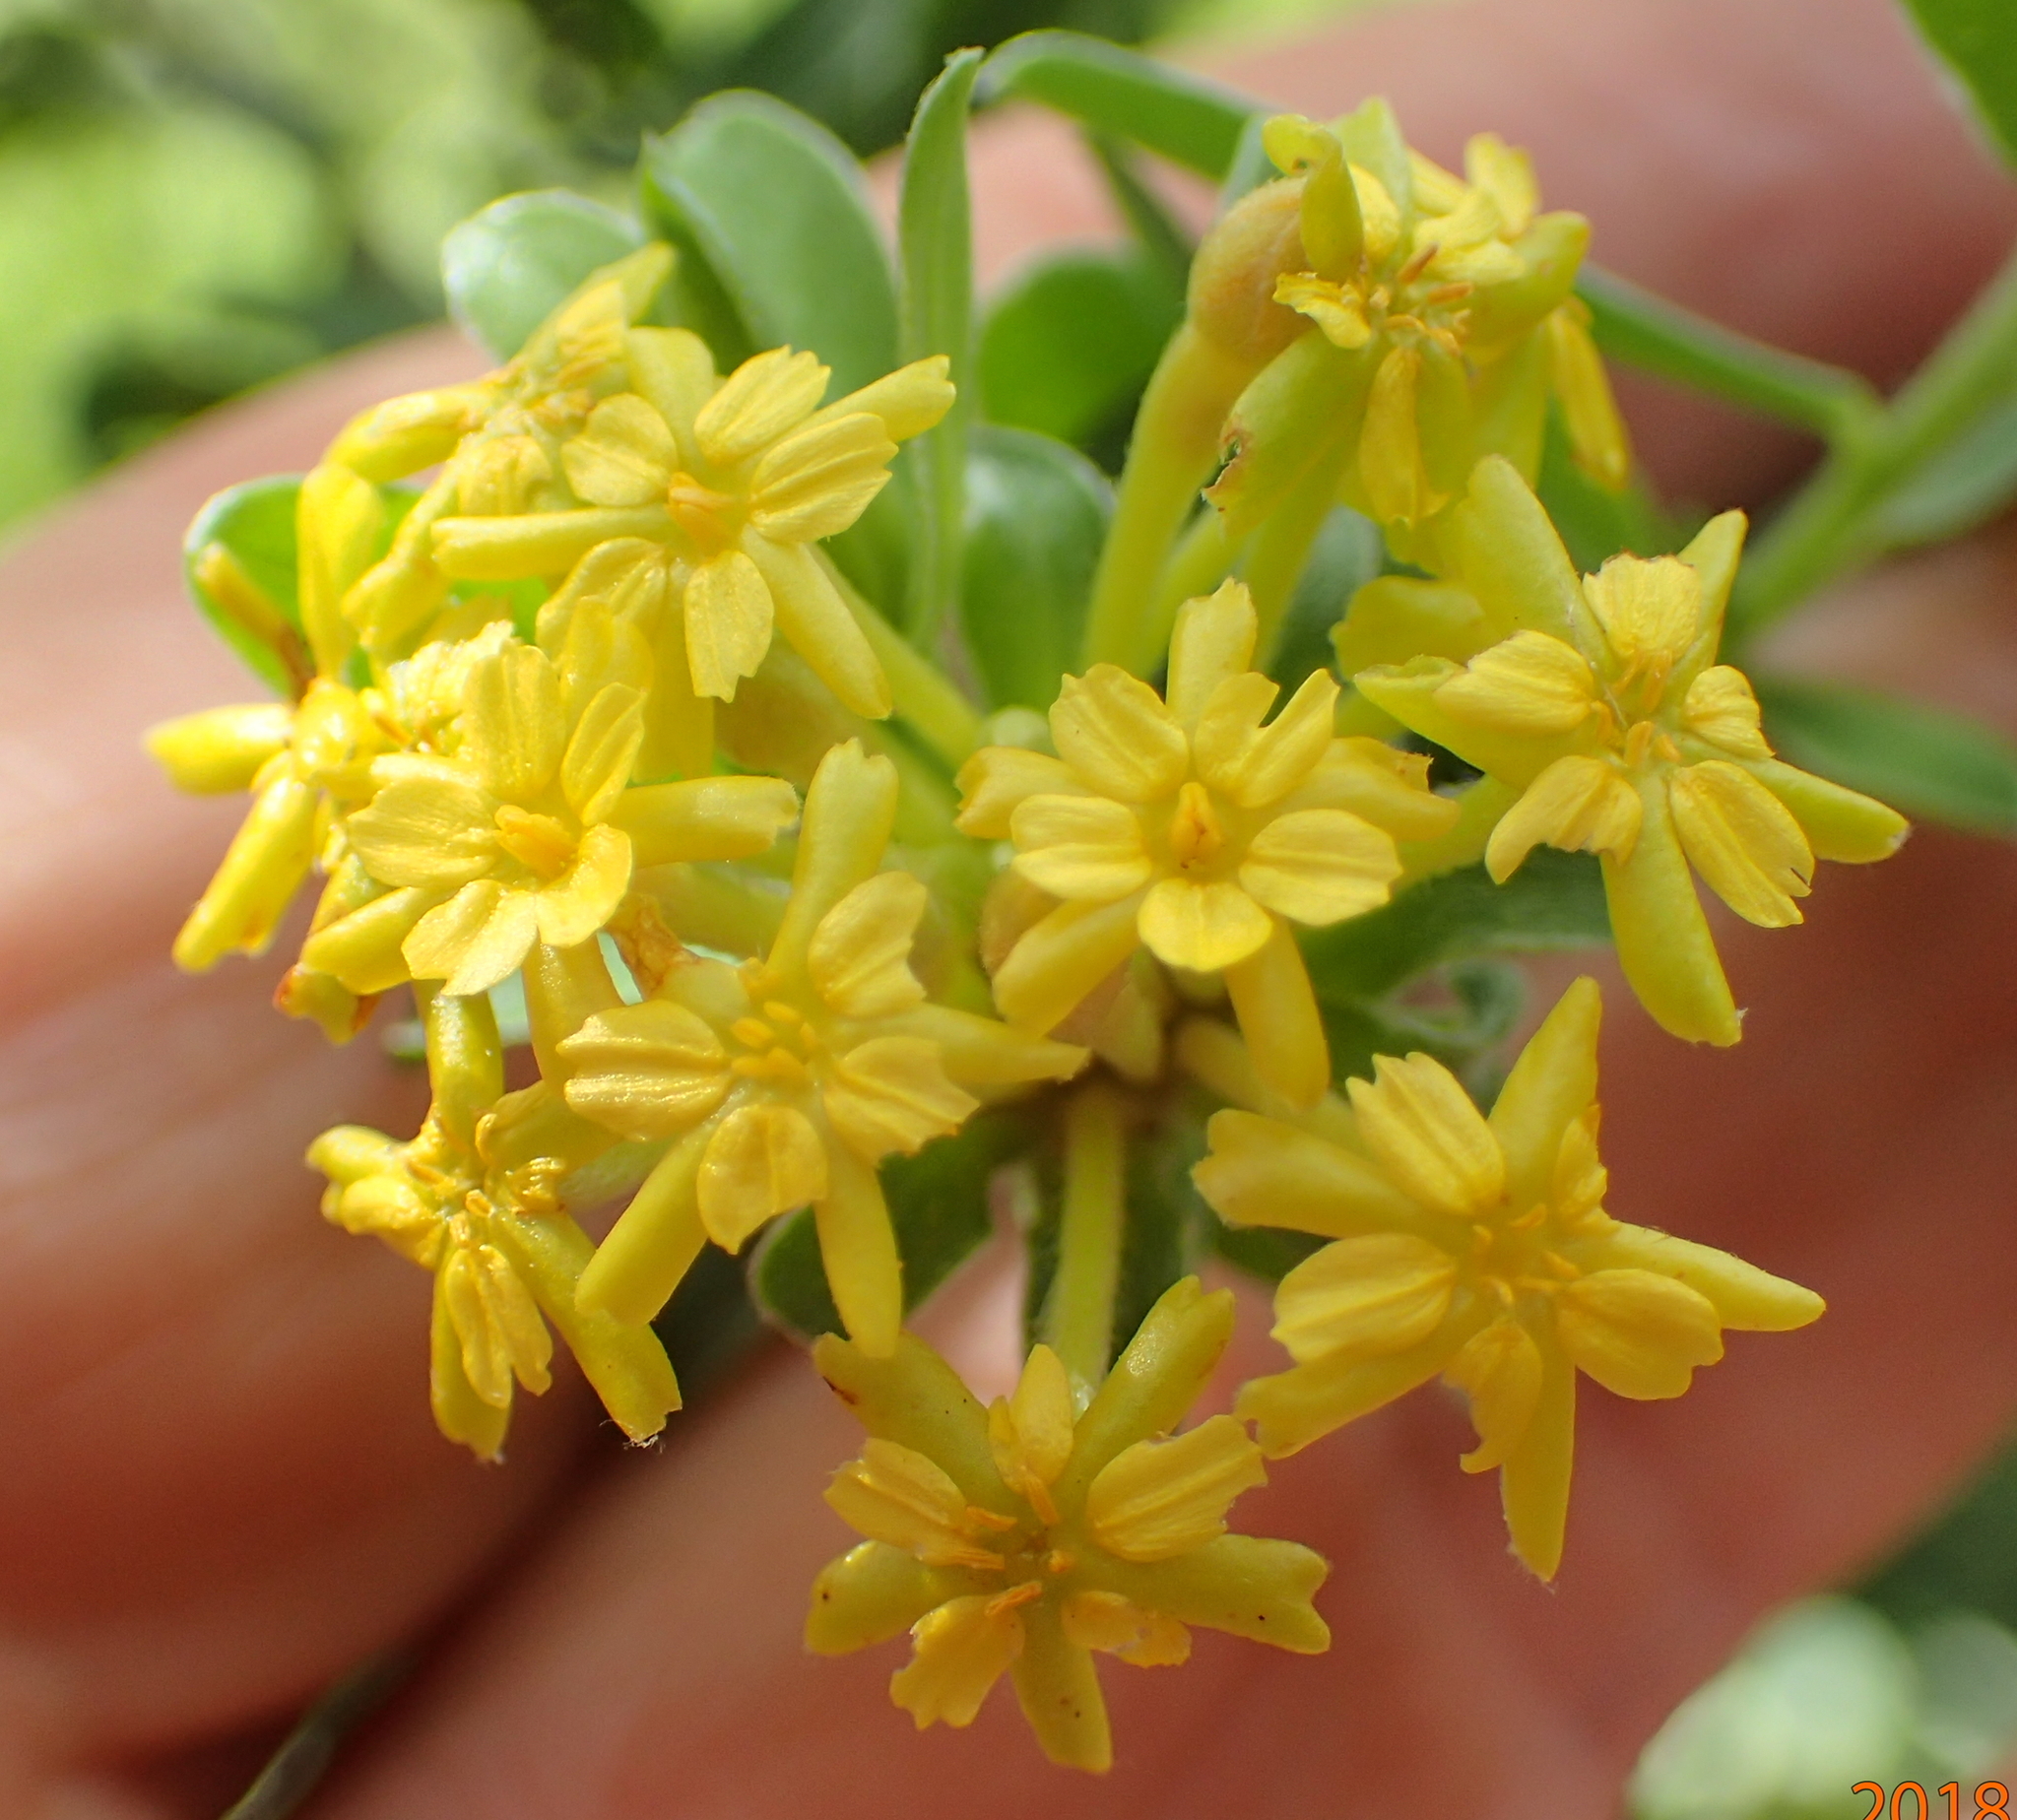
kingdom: Plantae
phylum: Tracheophyta
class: Magnoliopsida
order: Malvales
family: Thymelaeaceae
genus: Gnidia
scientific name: Gnidia macropetala
